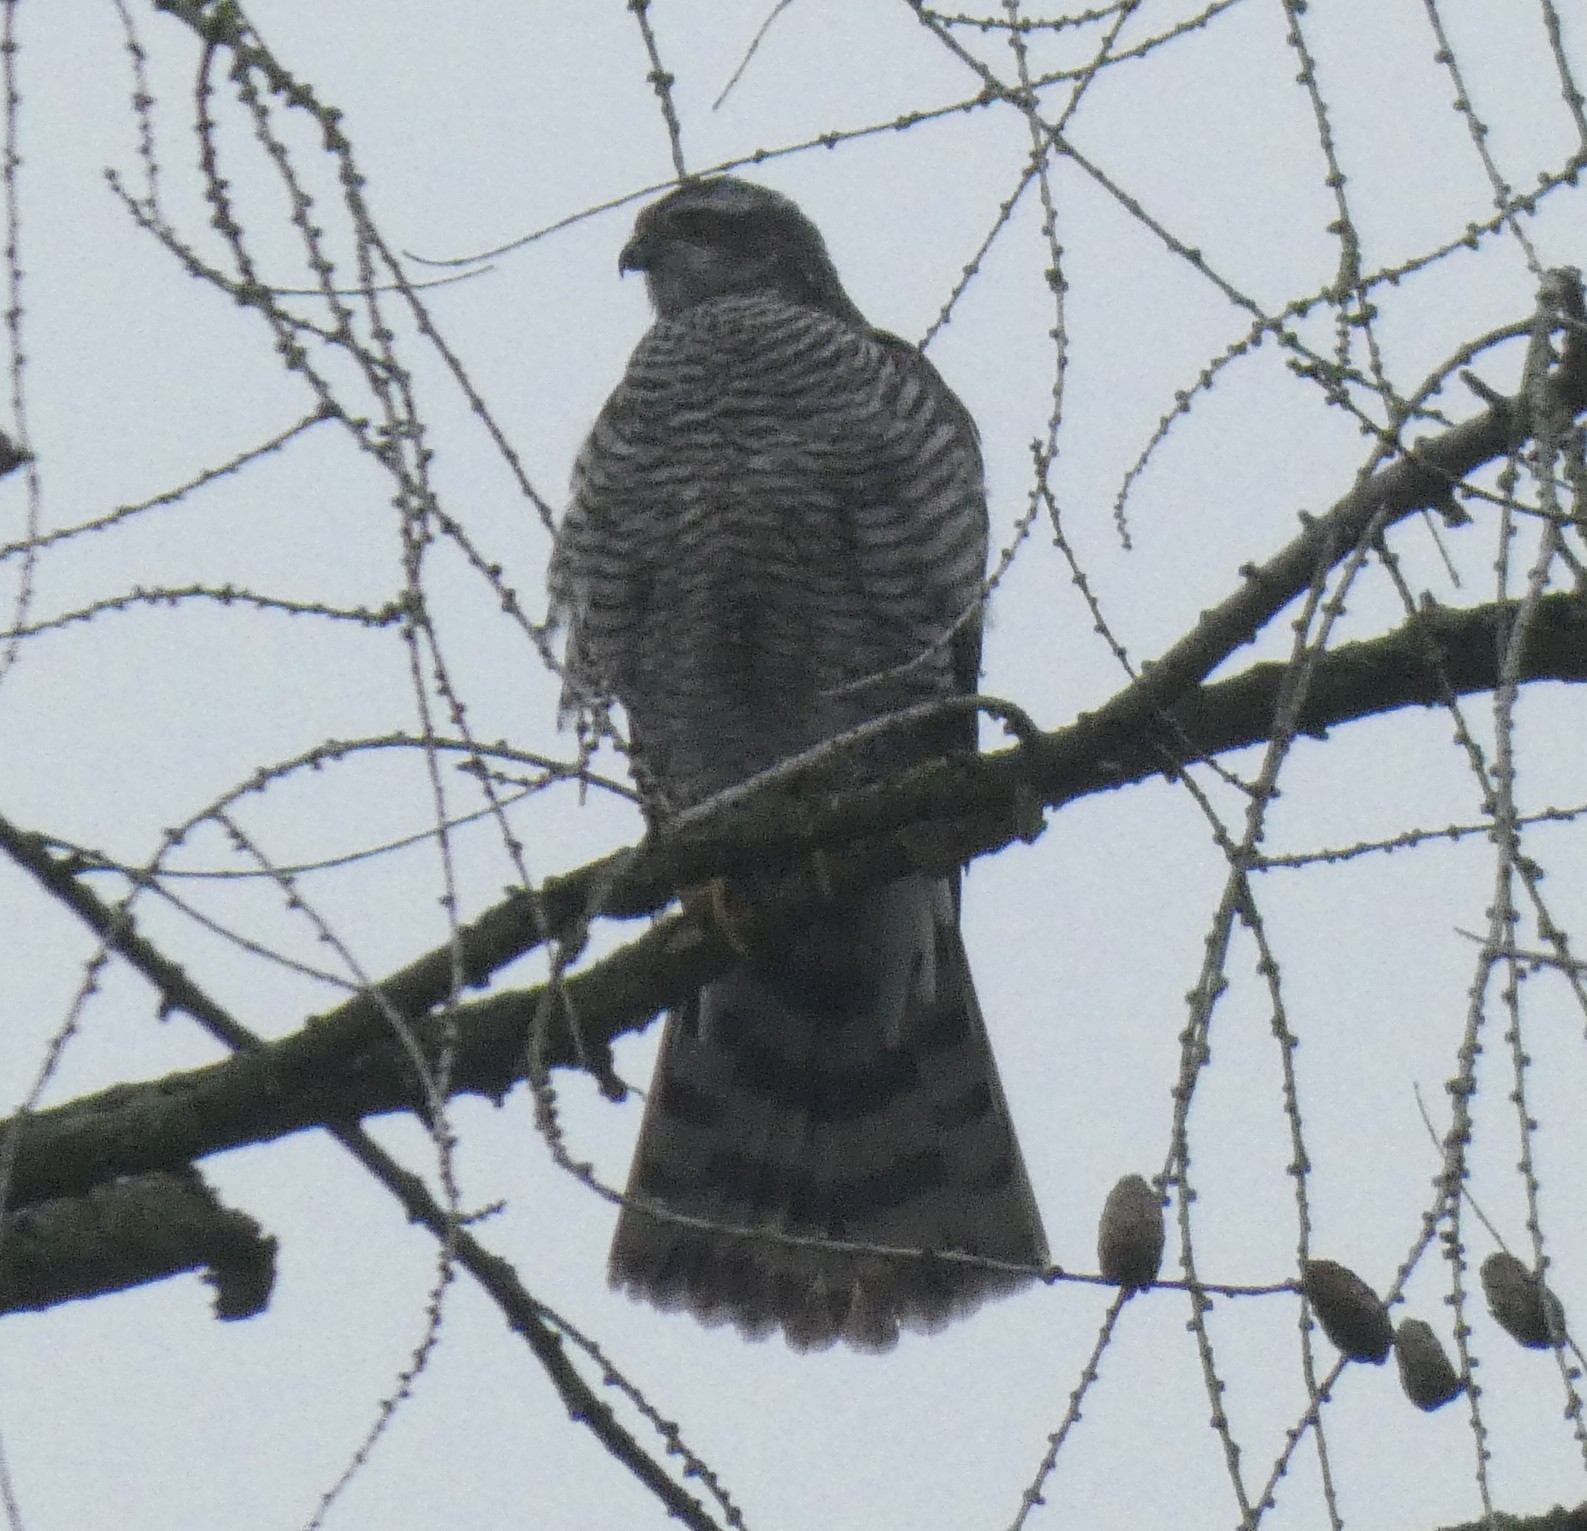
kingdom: Animalia
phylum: Chordata
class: Aves
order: Accipitriformes
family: Accipitridae
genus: Accipiter
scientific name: Accipiter nisus
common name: Eurasian sparrowhawk
